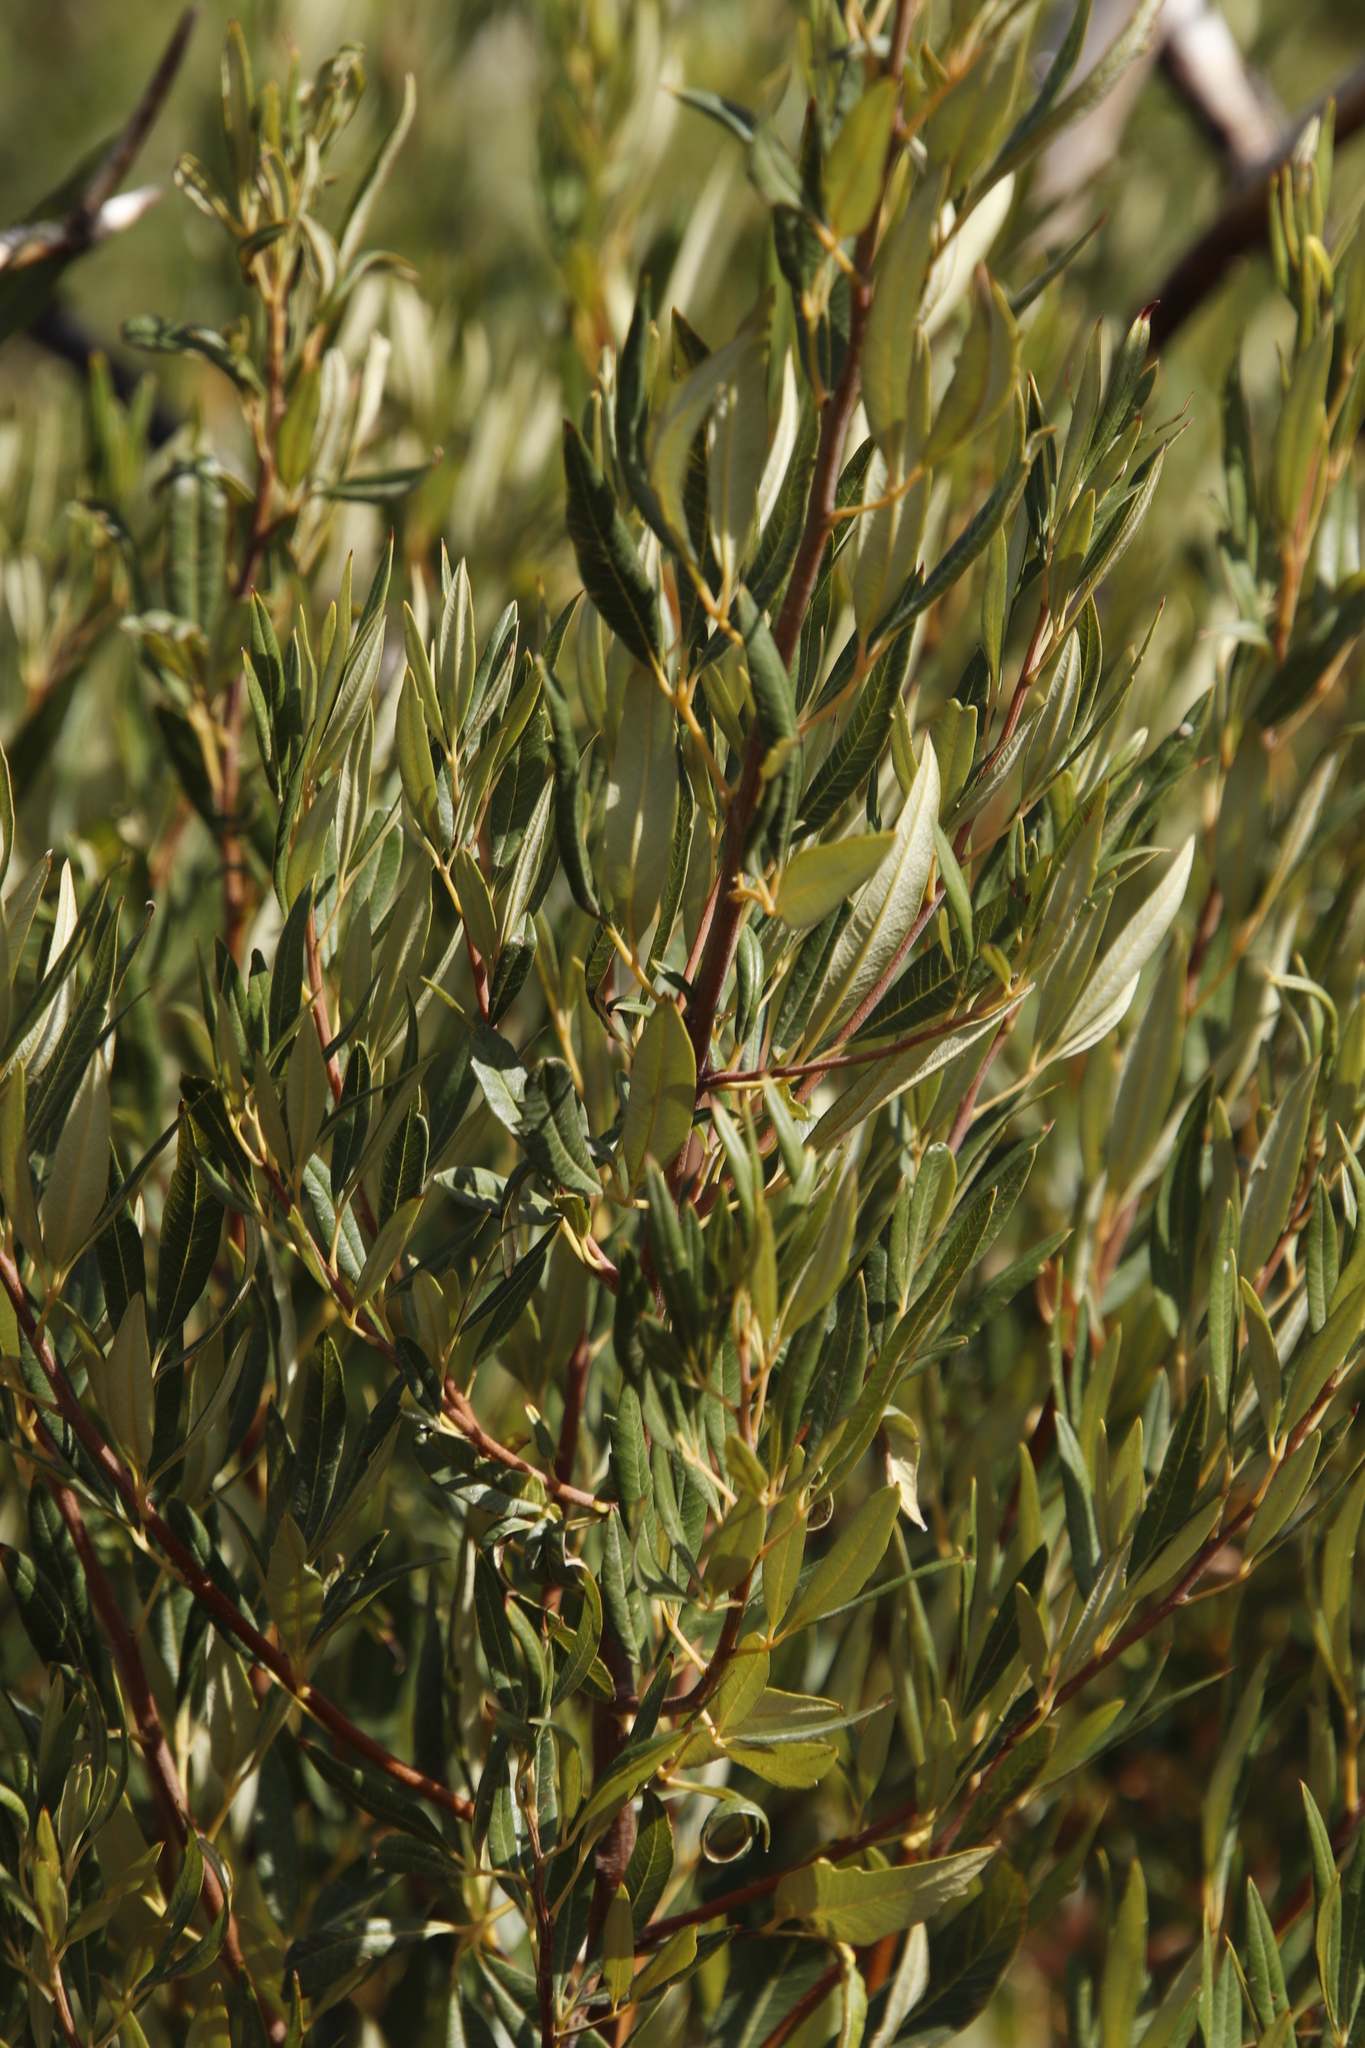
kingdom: Plantae
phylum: Tracheophyta
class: Magnoliopsida
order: Sapindales
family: Anacardiaceae
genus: Searsia
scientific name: Searsia stenophylla
